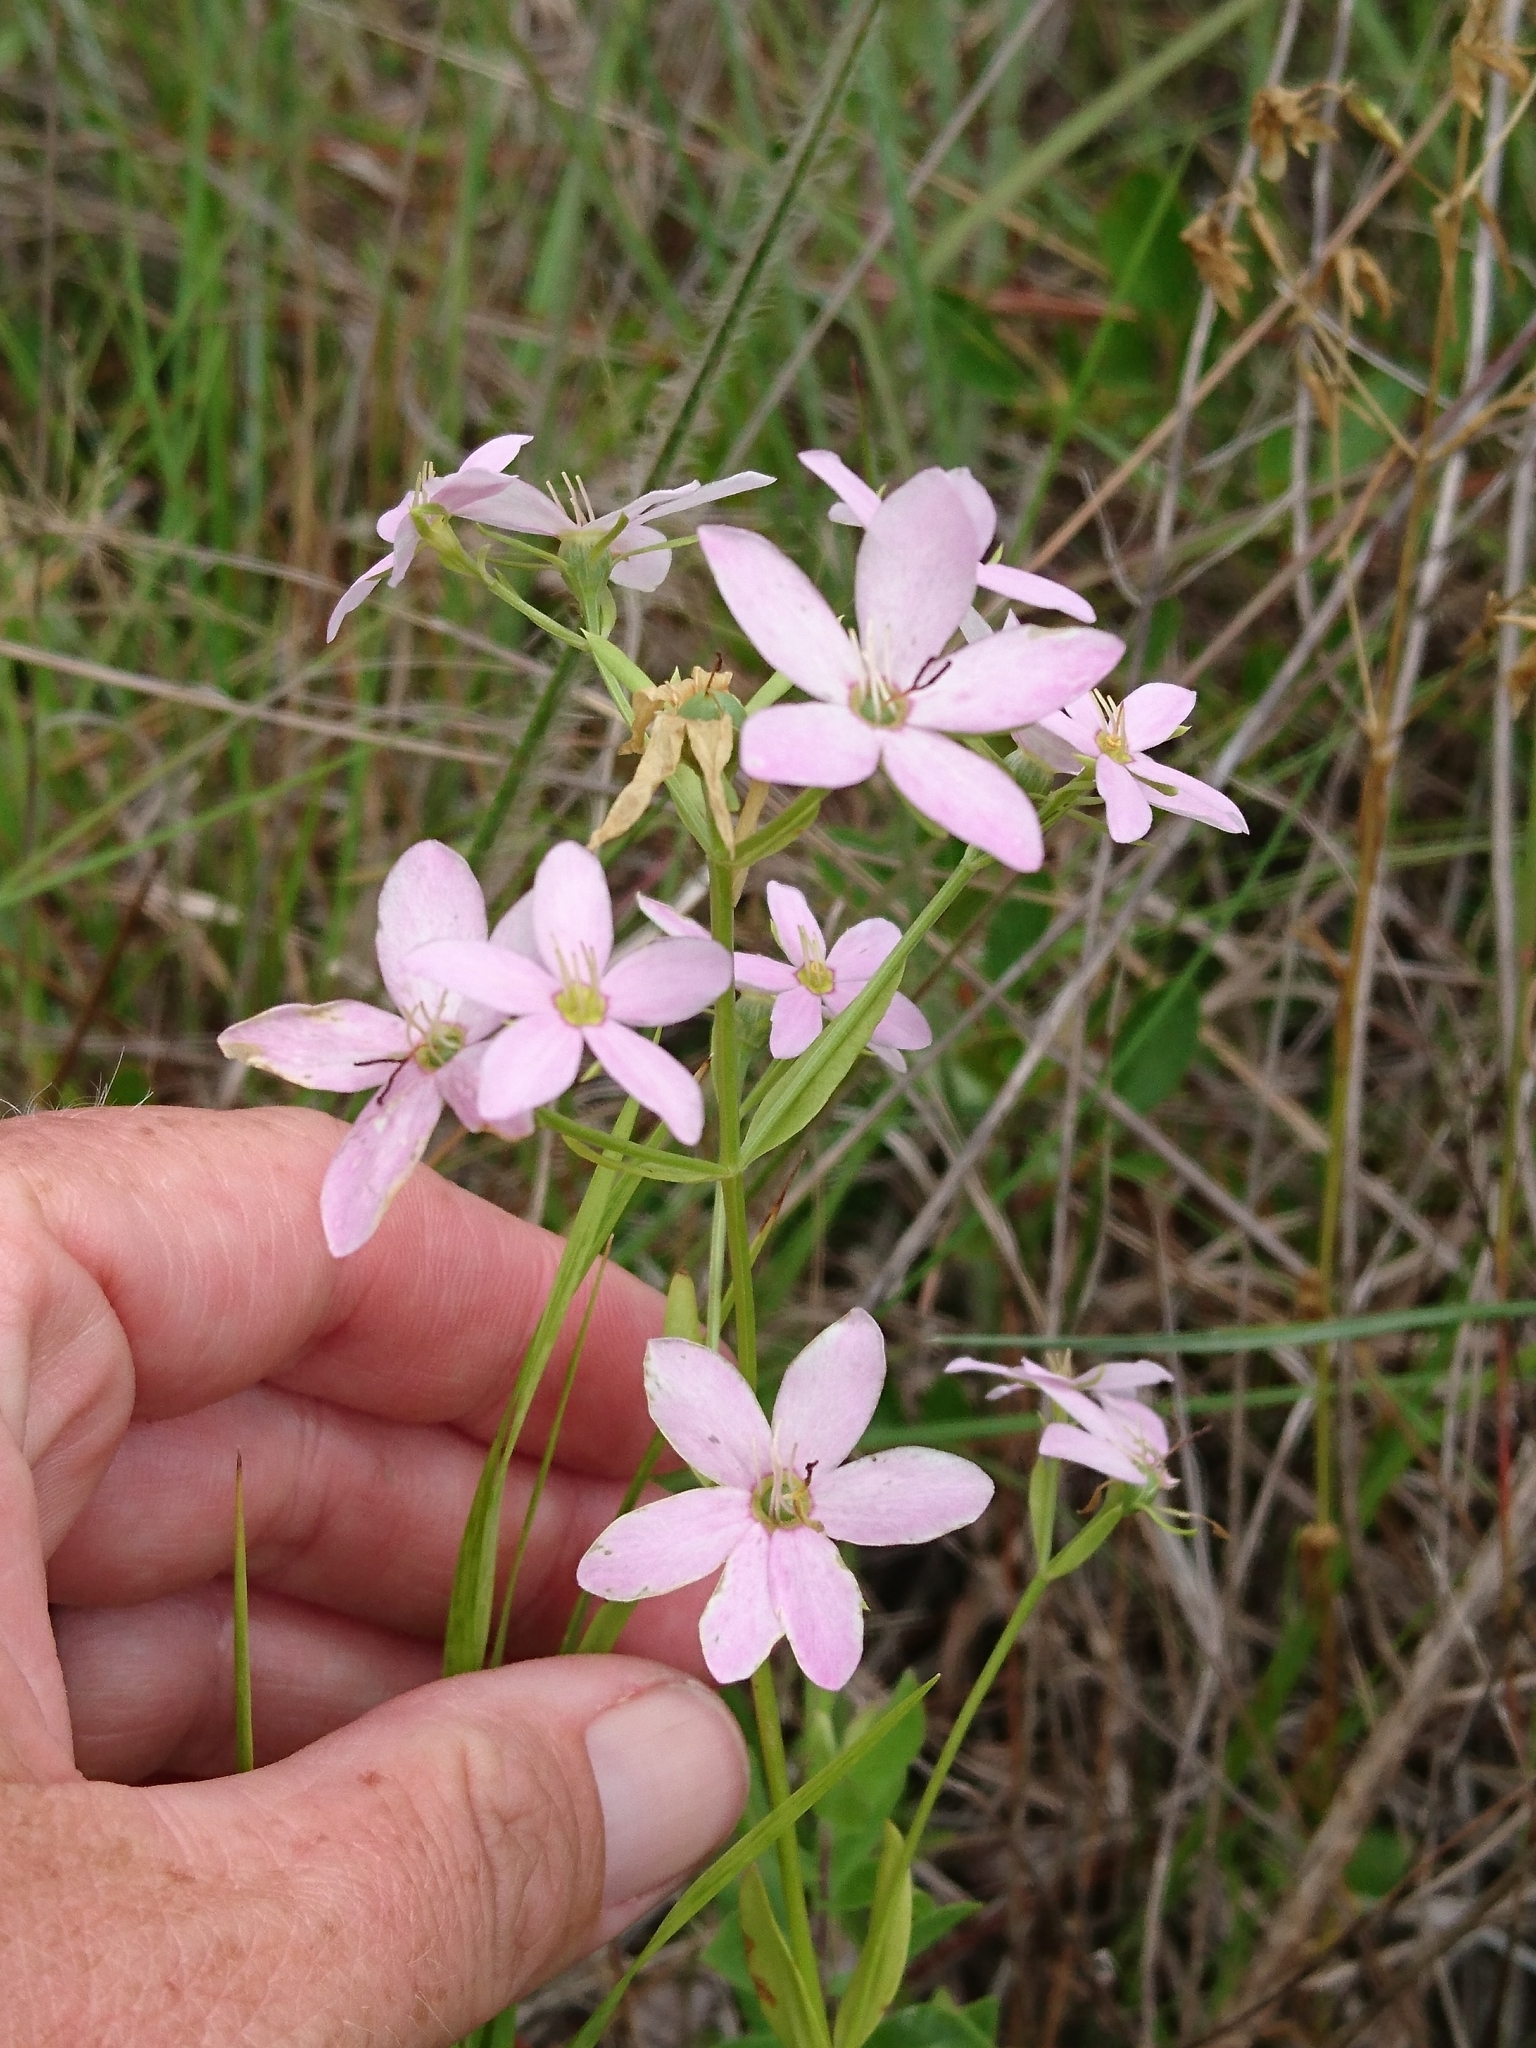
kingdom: Plantae
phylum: Tracheophyta
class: Magnoliopsida
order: Gentianales
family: Gentianaceae
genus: Sabatia
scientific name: Sabatia brachiata
